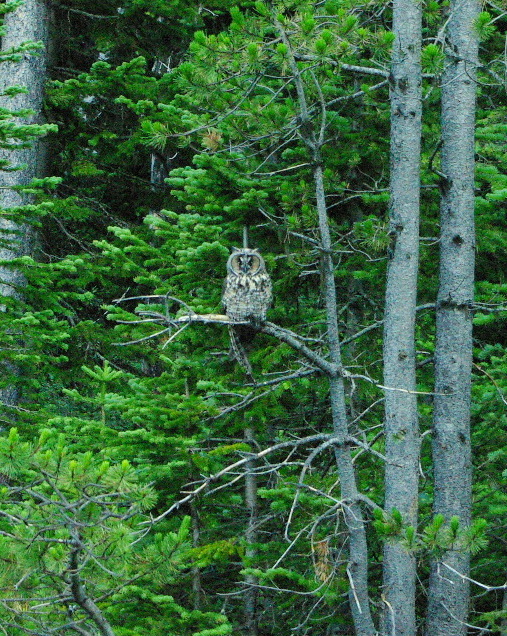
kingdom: Animalia
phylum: Chordata
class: Aves
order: Strigiformes
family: Strigidae
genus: Asio
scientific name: Asio otus
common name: Long-eared owl
